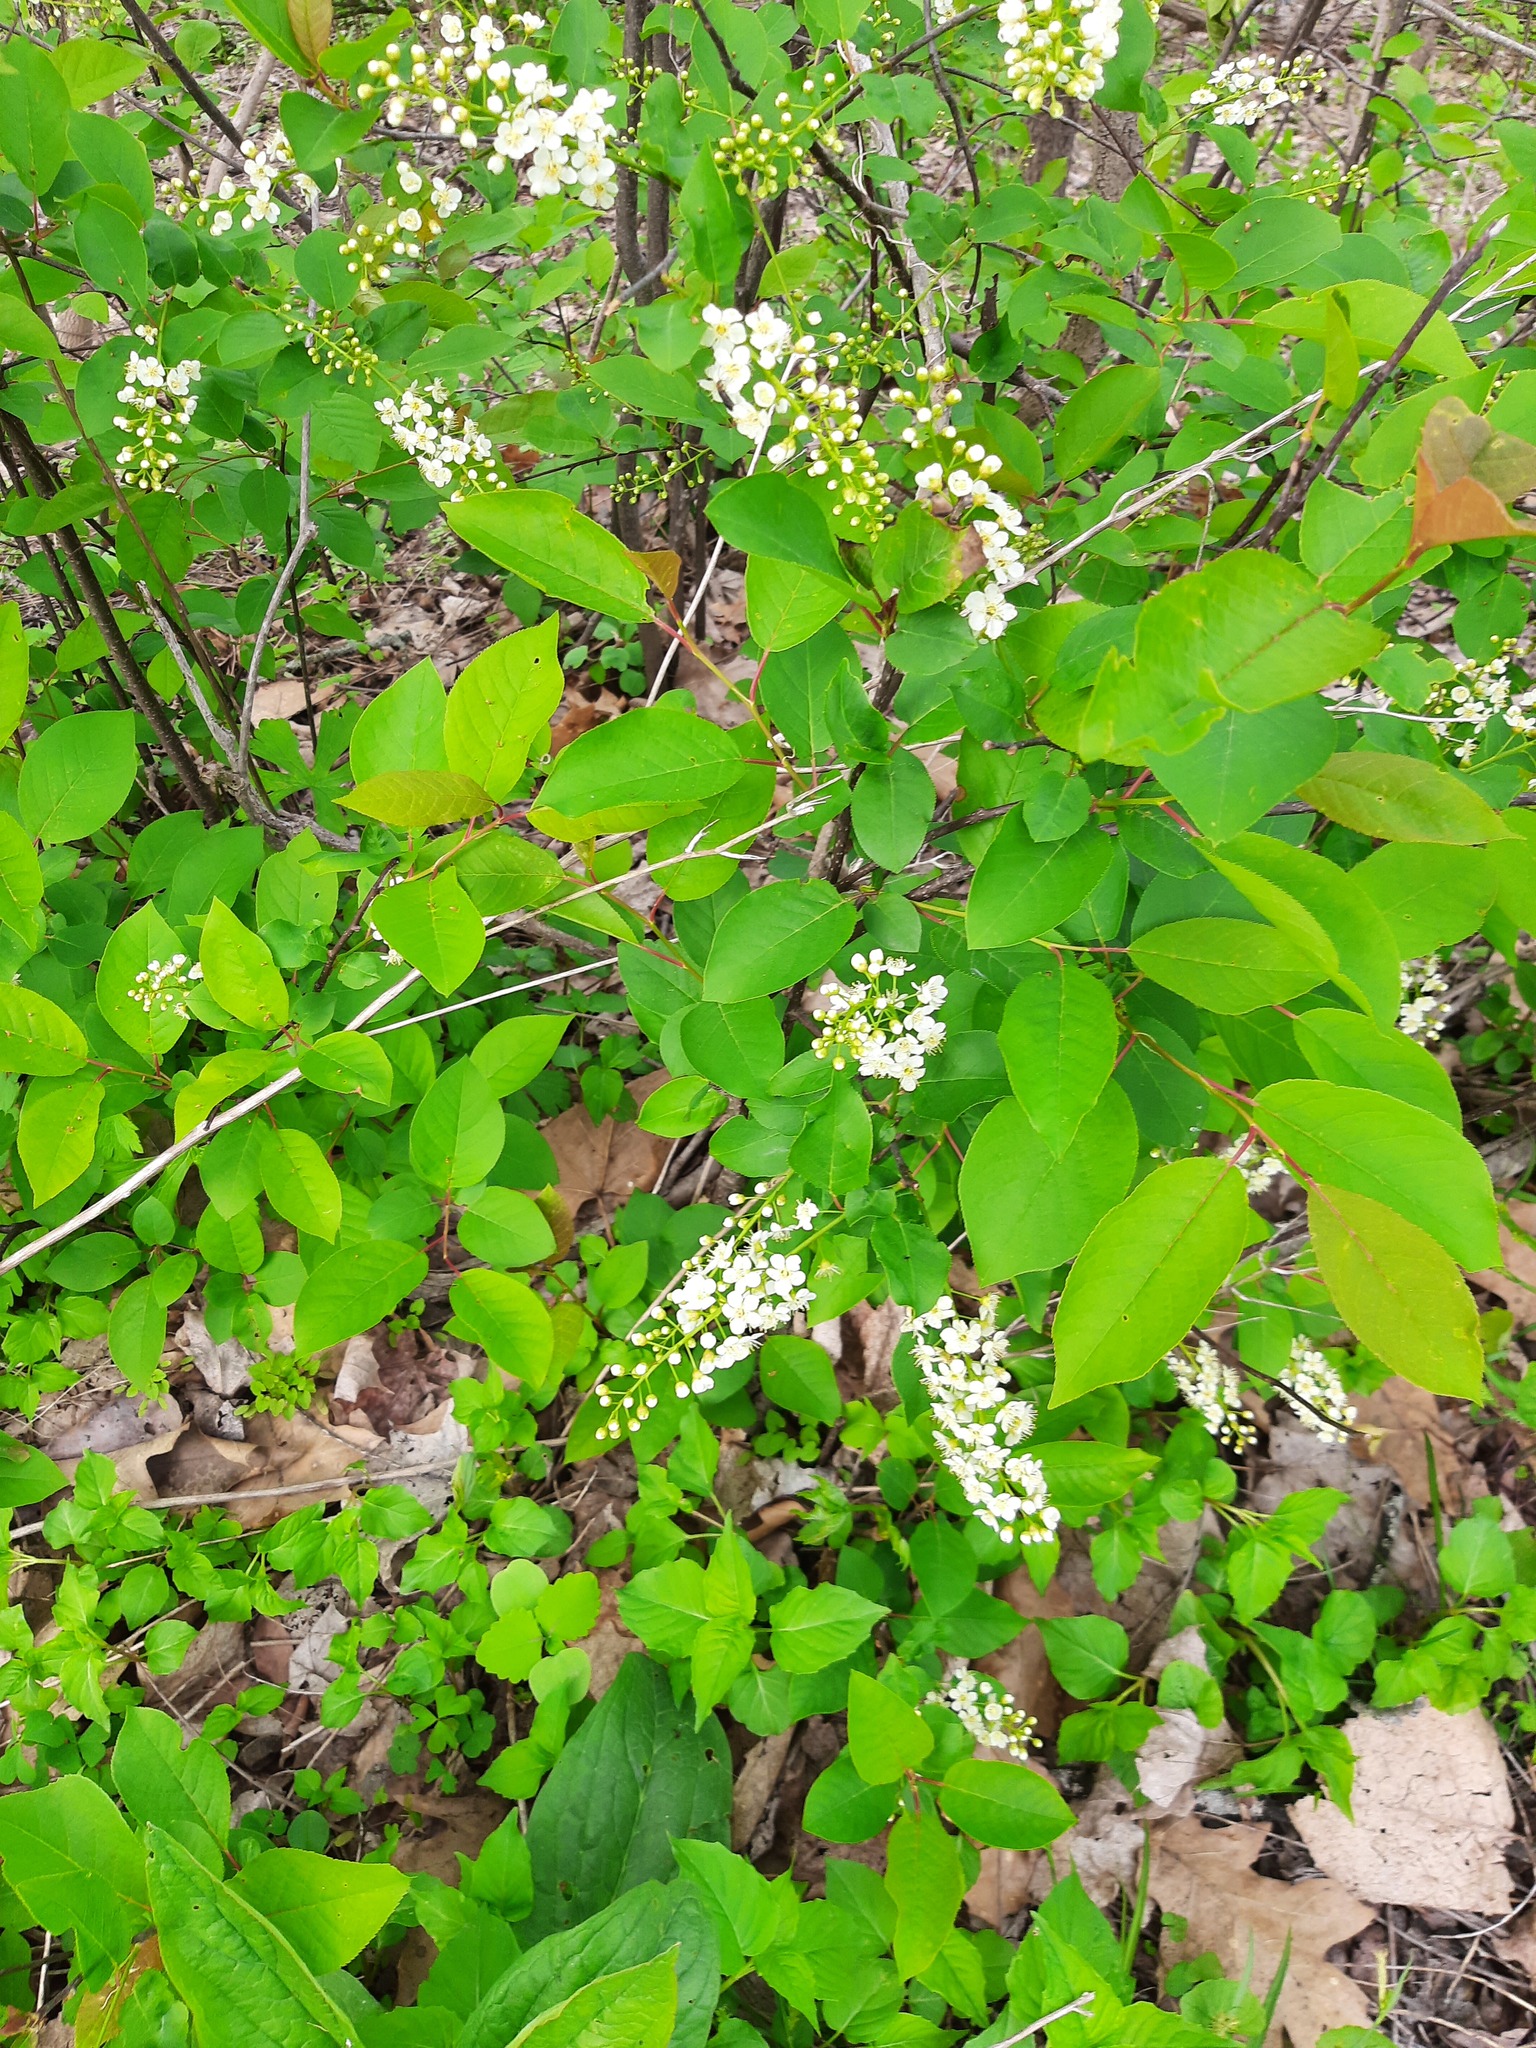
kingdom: Plantae
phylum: Tracheophyta
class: Magnoliopsida
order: Rosales
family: Rosaceae
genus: Prunus
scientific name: Prunus virginiana
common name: Chokecherry
